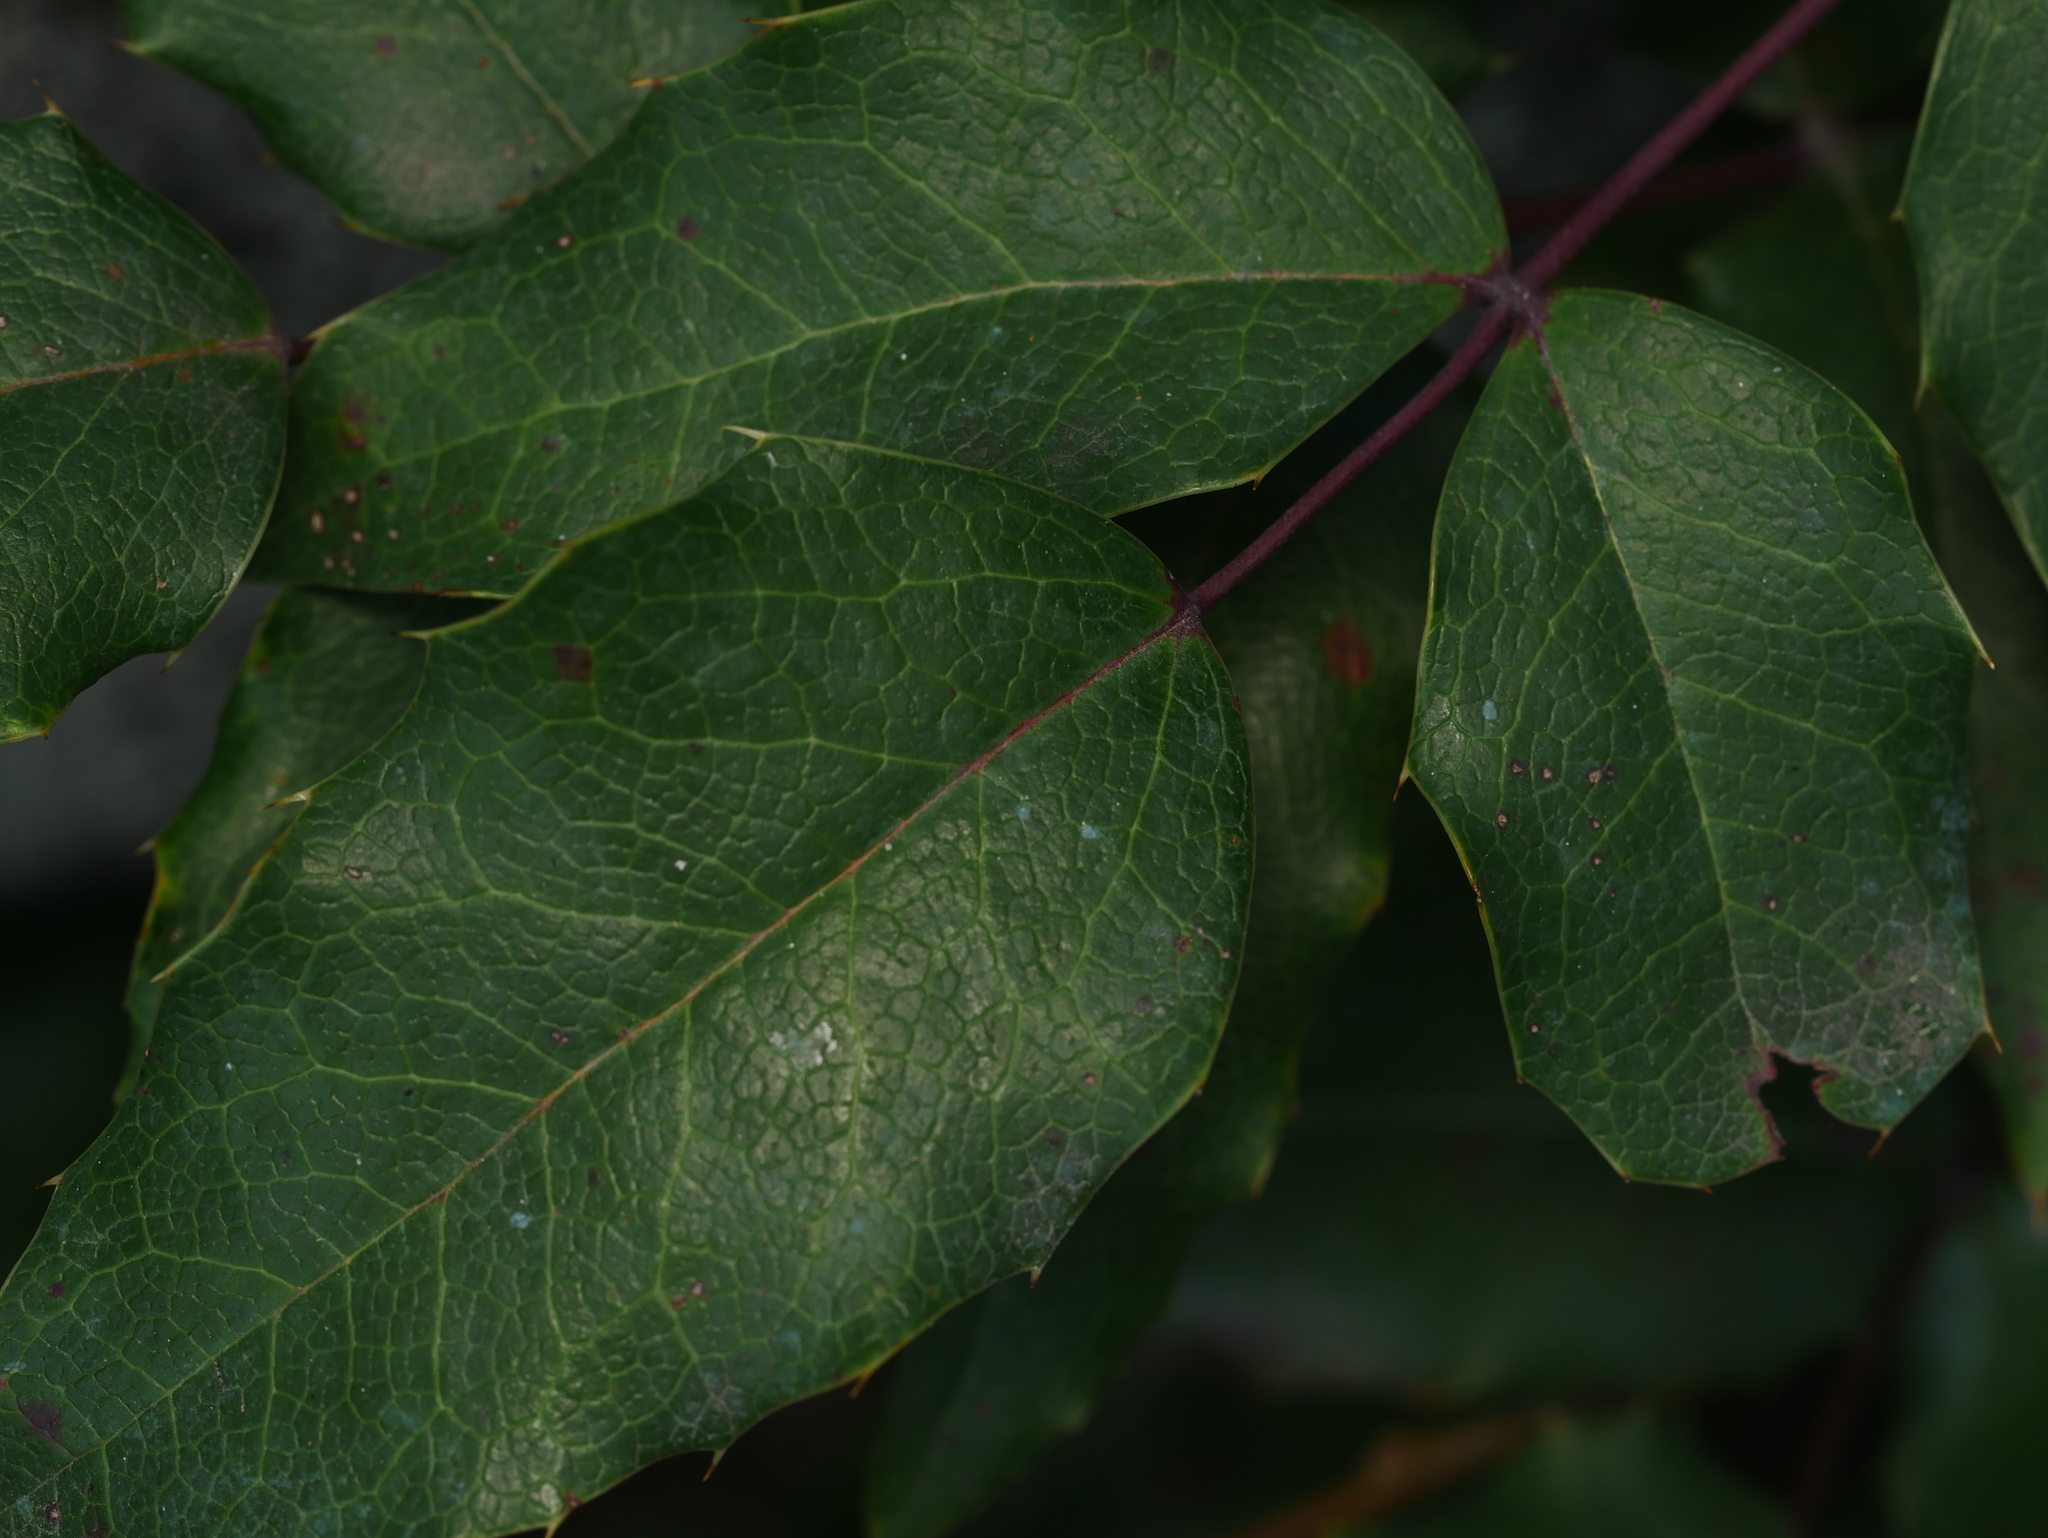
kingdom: Plantae
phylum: Tracheophyta
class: Magnoliopsida
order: Ranunculales
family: Berberidaceae
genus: Mahonia
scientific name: Mahonia aquifolium
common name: Oregon-grape
